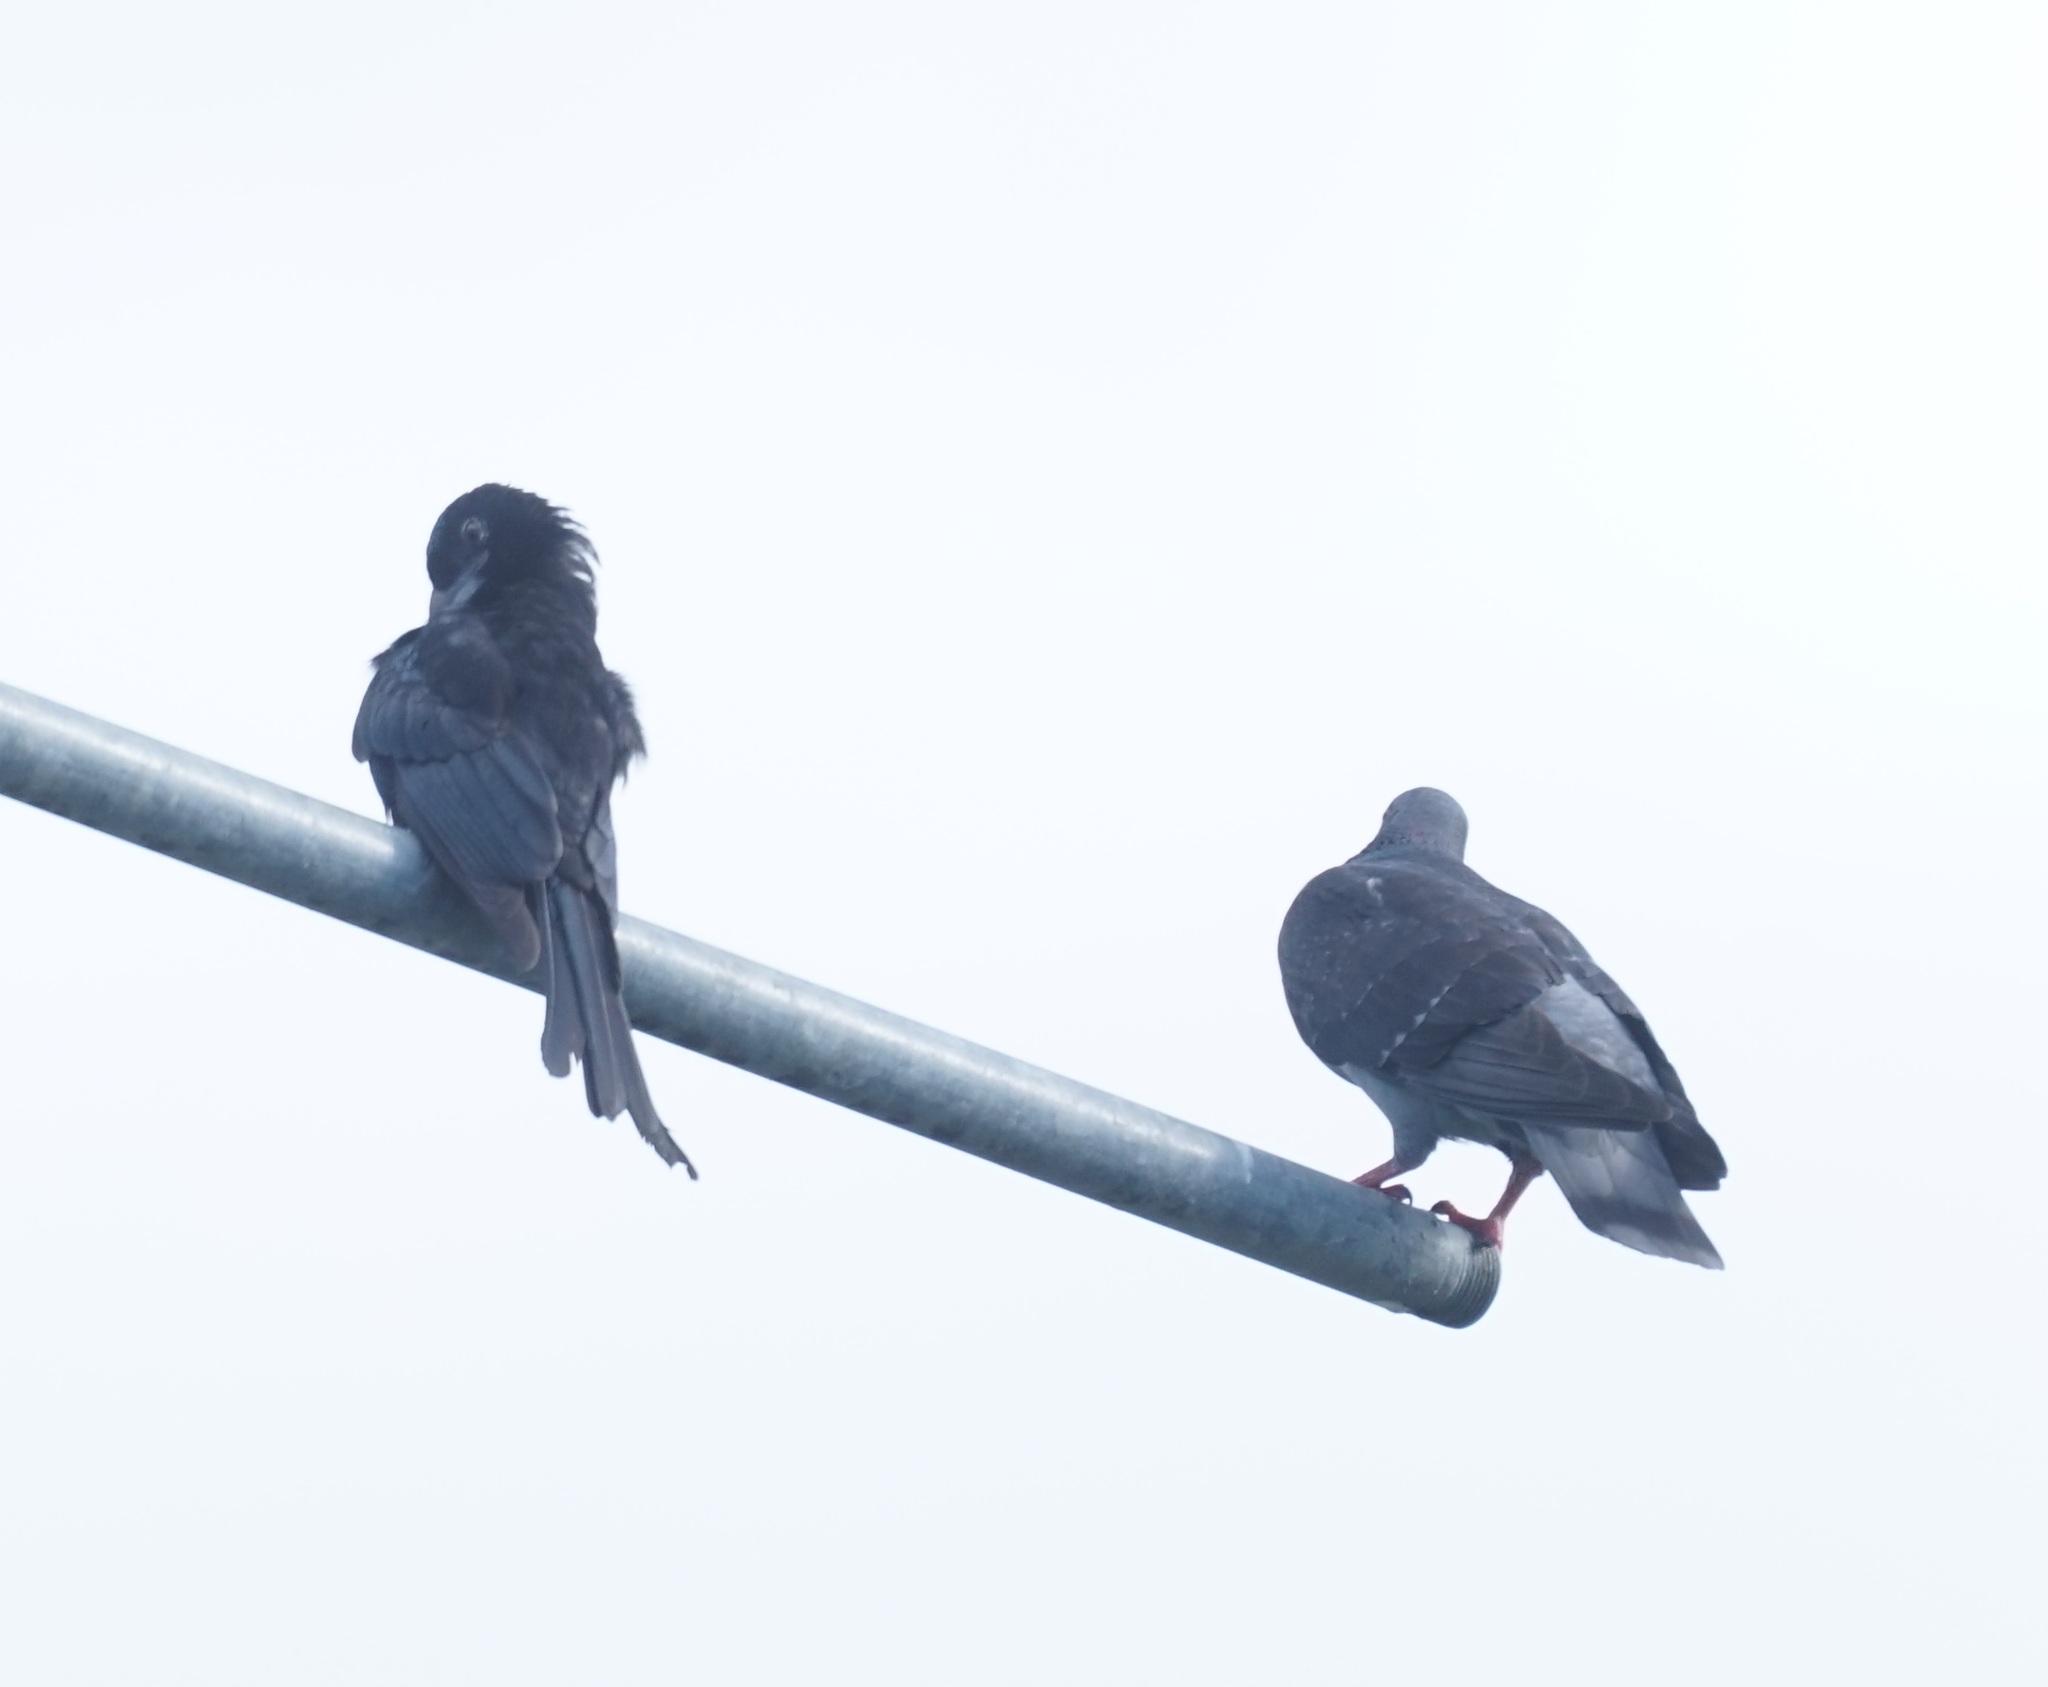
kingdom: Animalia
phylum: Chordata
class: Aves
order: Columbiformes
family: Columbidae
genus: Columba
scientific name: Columba livia
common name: Rock pigeon
